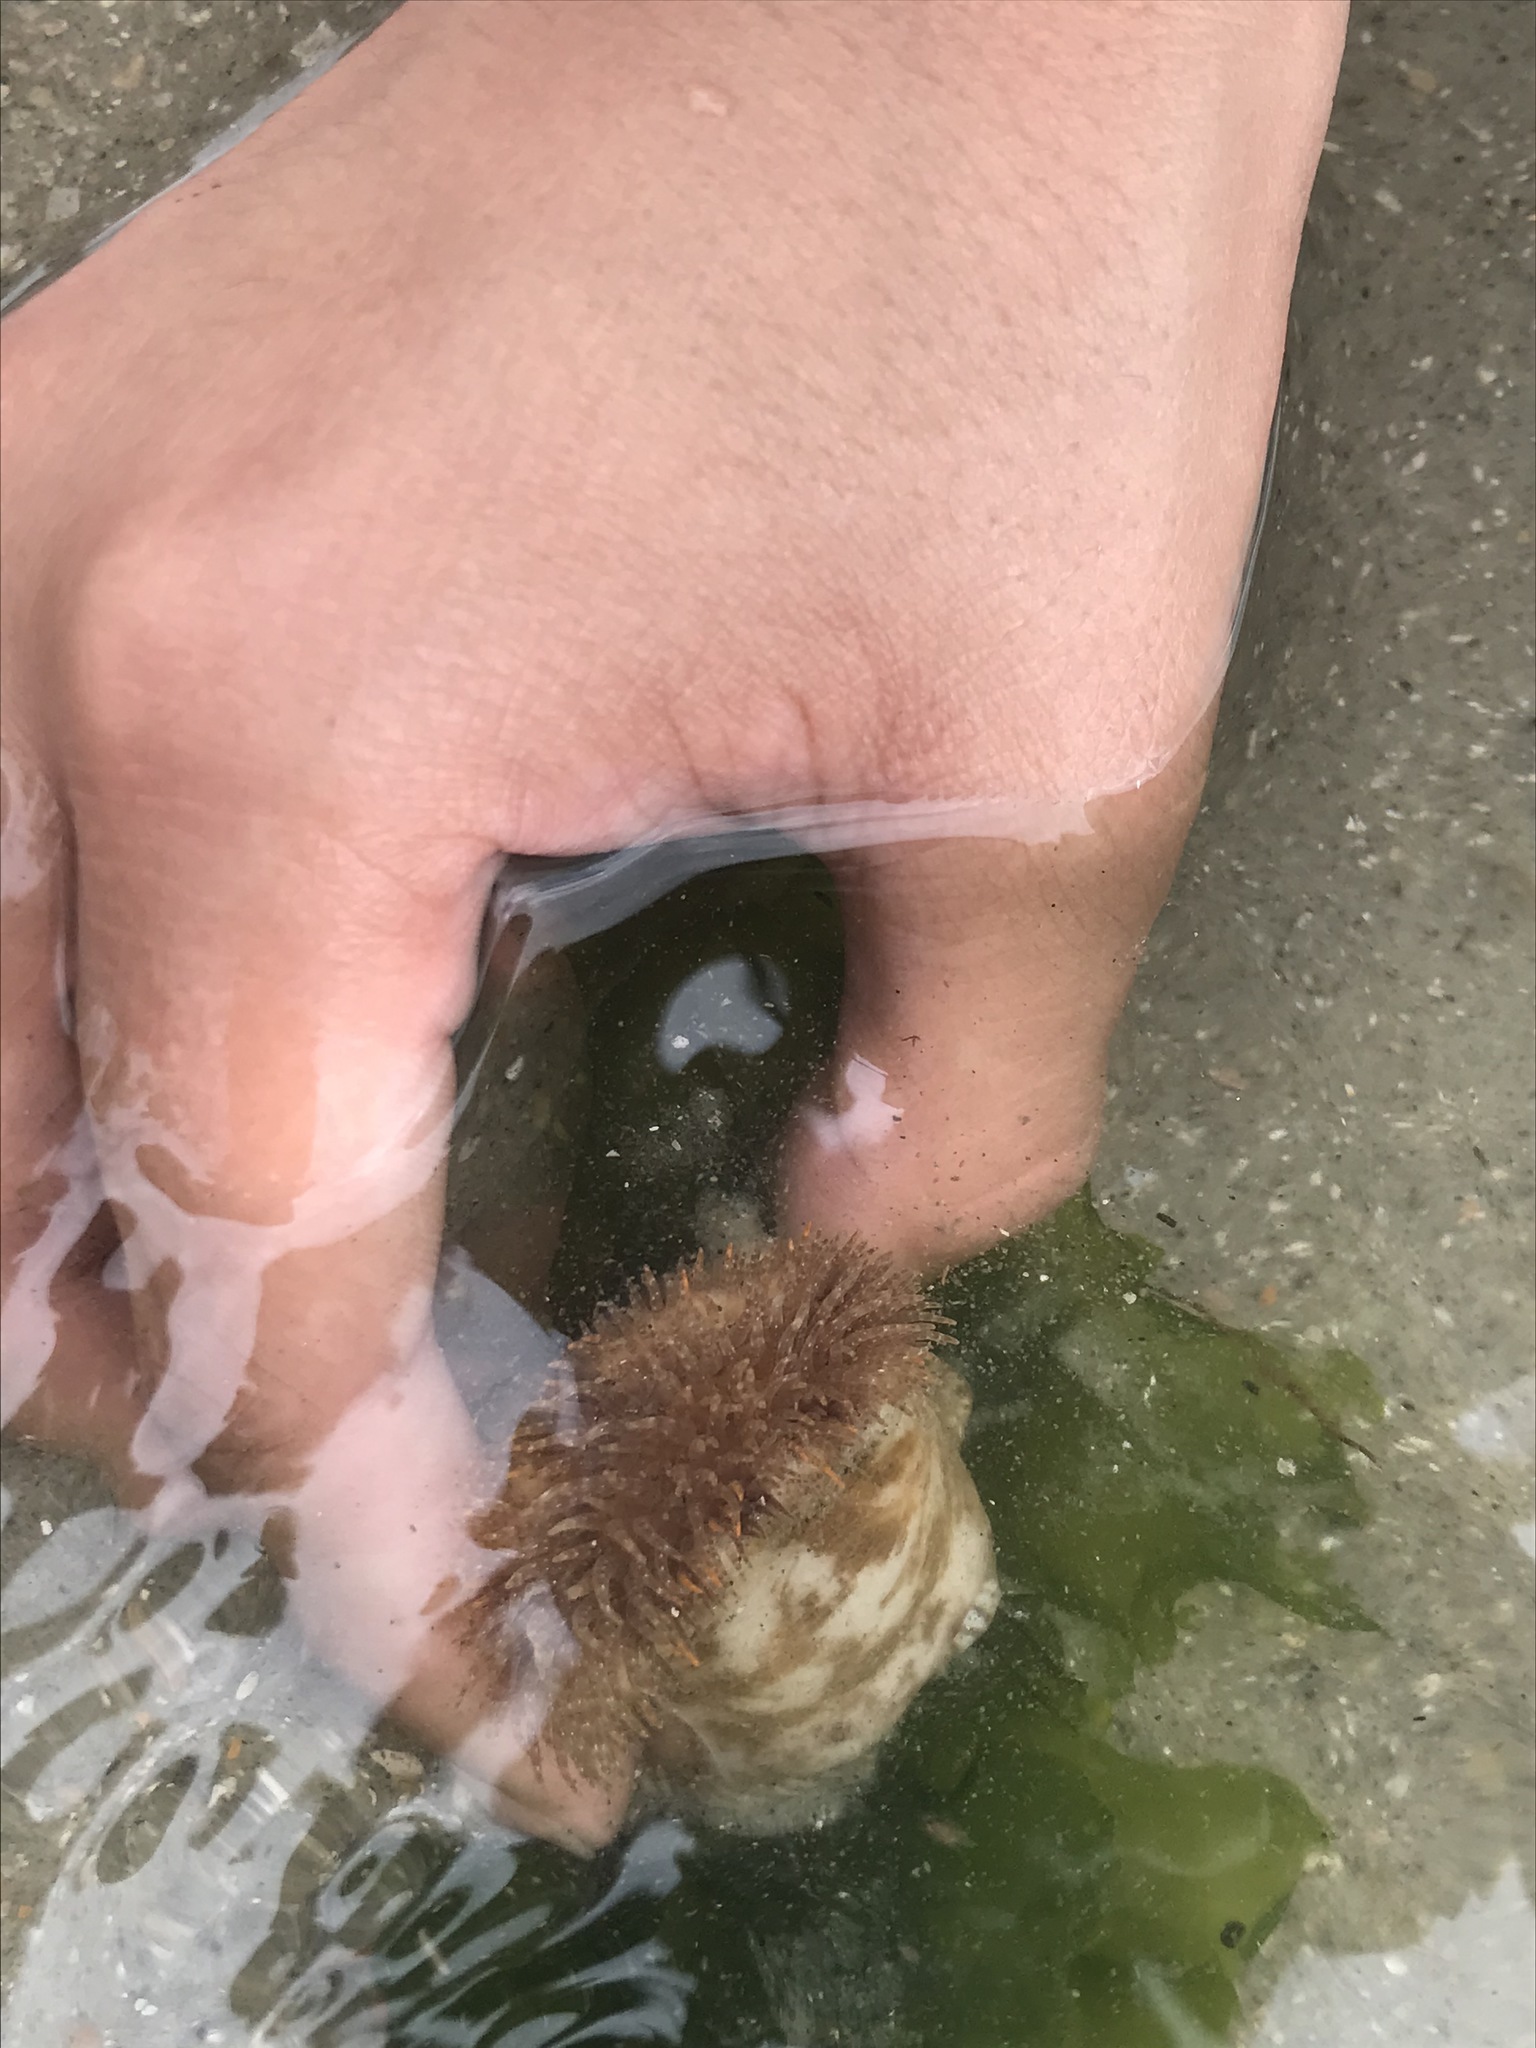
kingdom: Animalia
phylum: Cnidaria
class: Anthozoa
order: Actiniaria
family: Hormathiidae
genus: Calliactis
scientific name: Calliactis tricolor
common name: Hermit anemone
